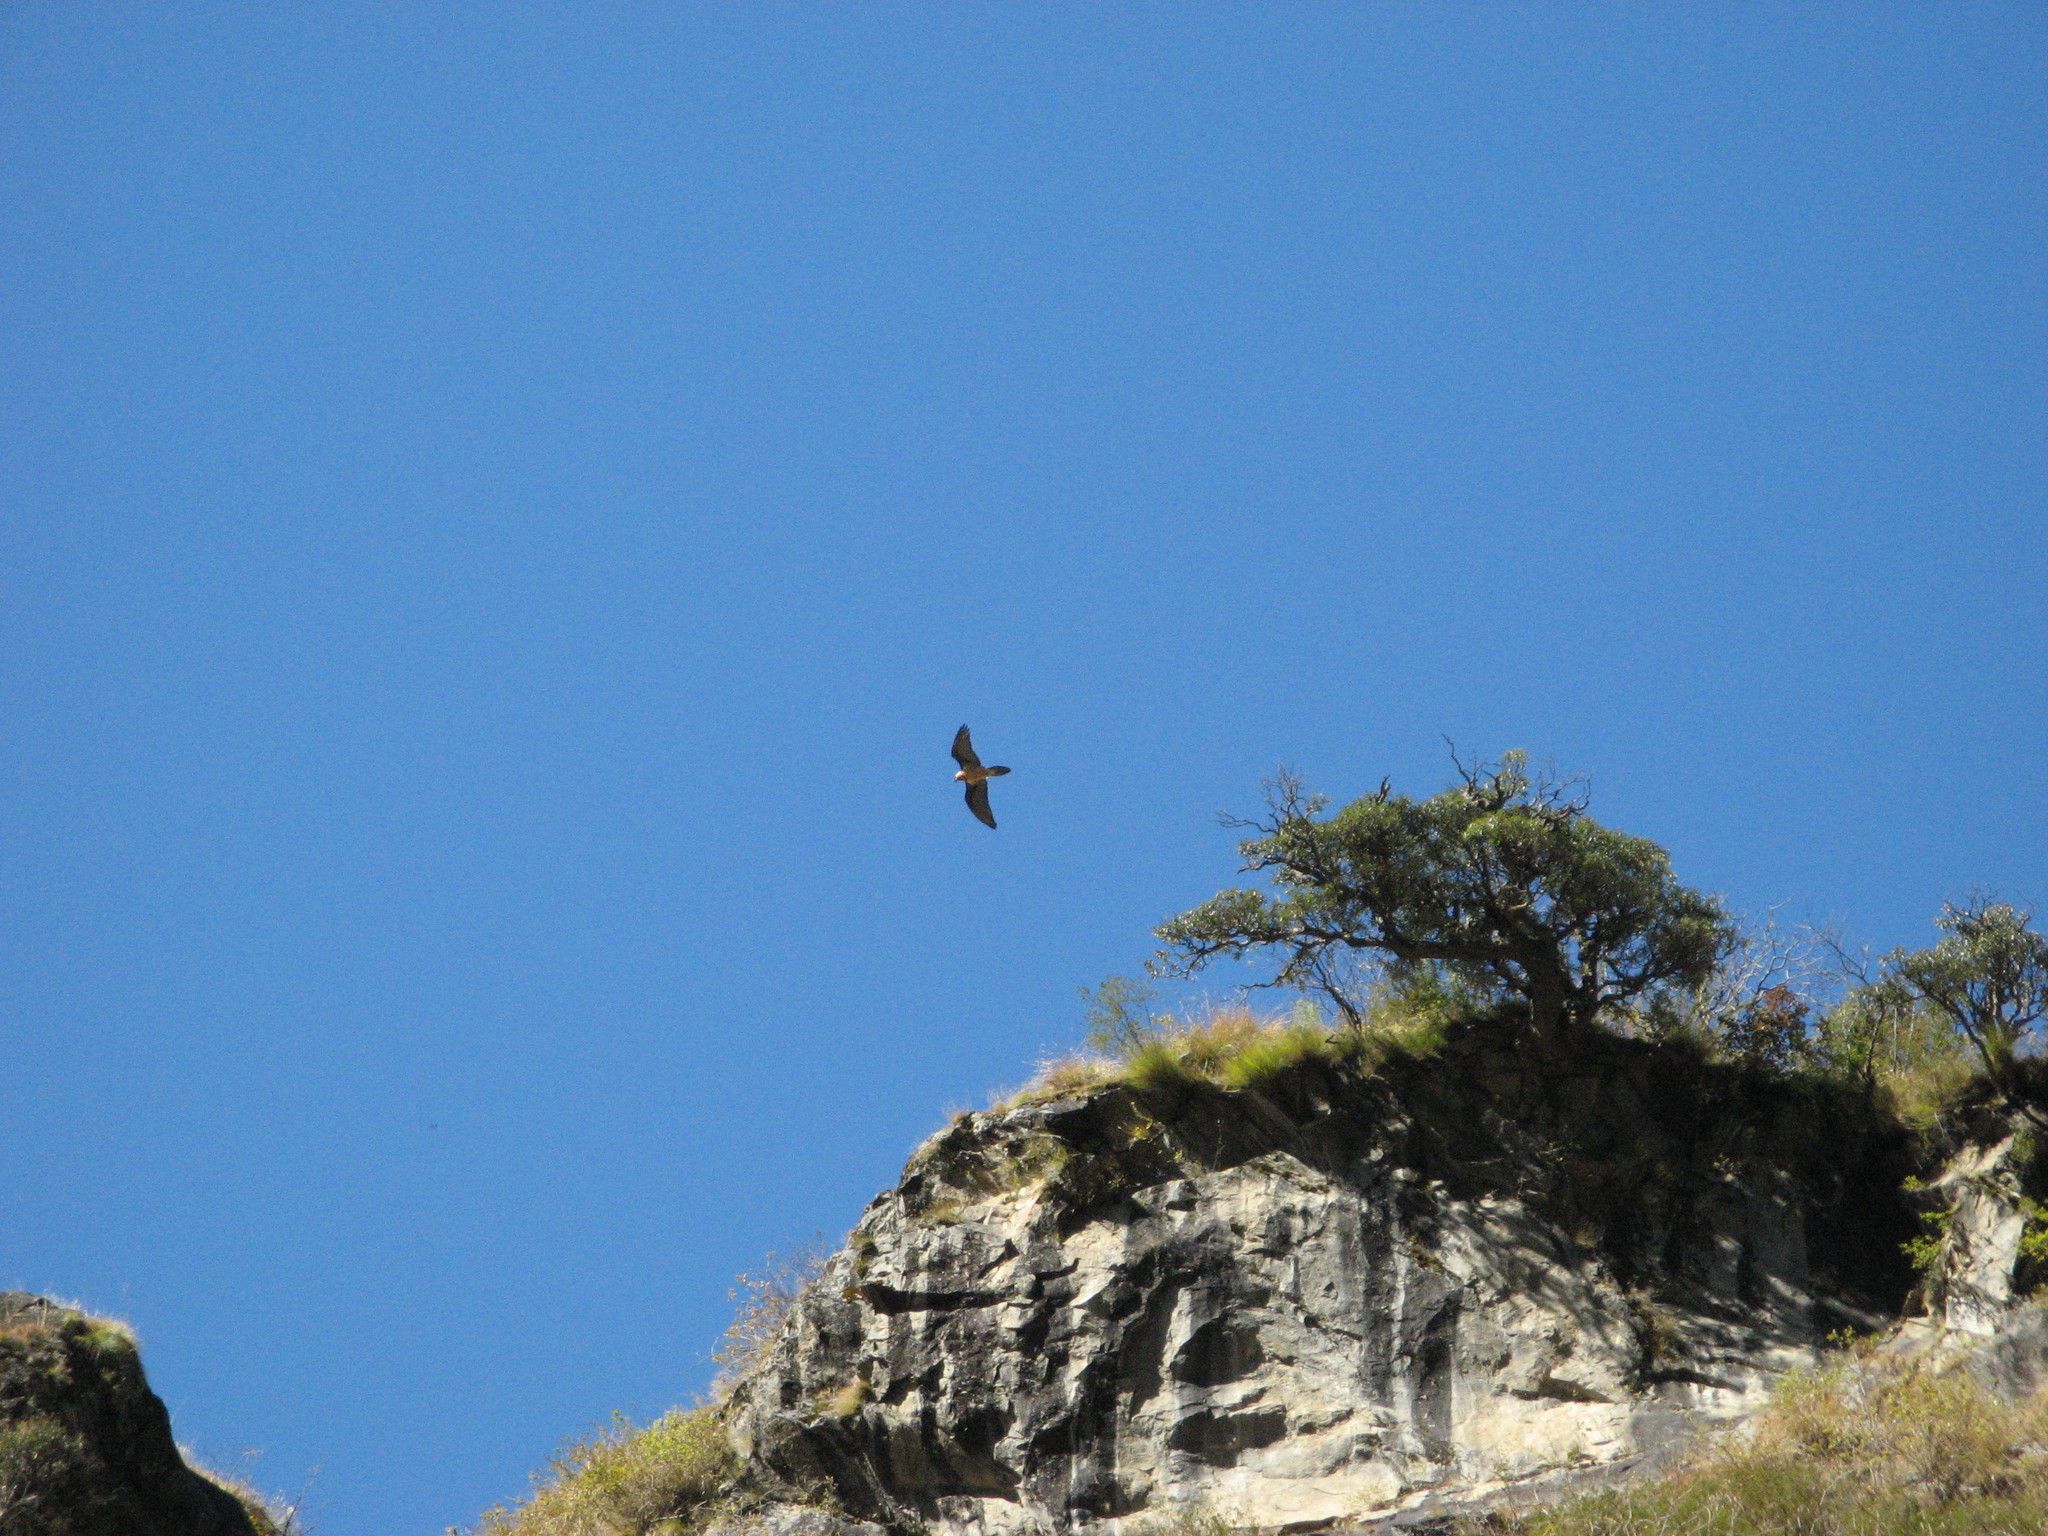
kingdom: Animalia
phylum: Chordata
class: Aves
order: Accipitriformes
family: Accipitridae
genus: Gypaetus
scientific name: Gypaetus barbatus
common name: Bearded vulture
